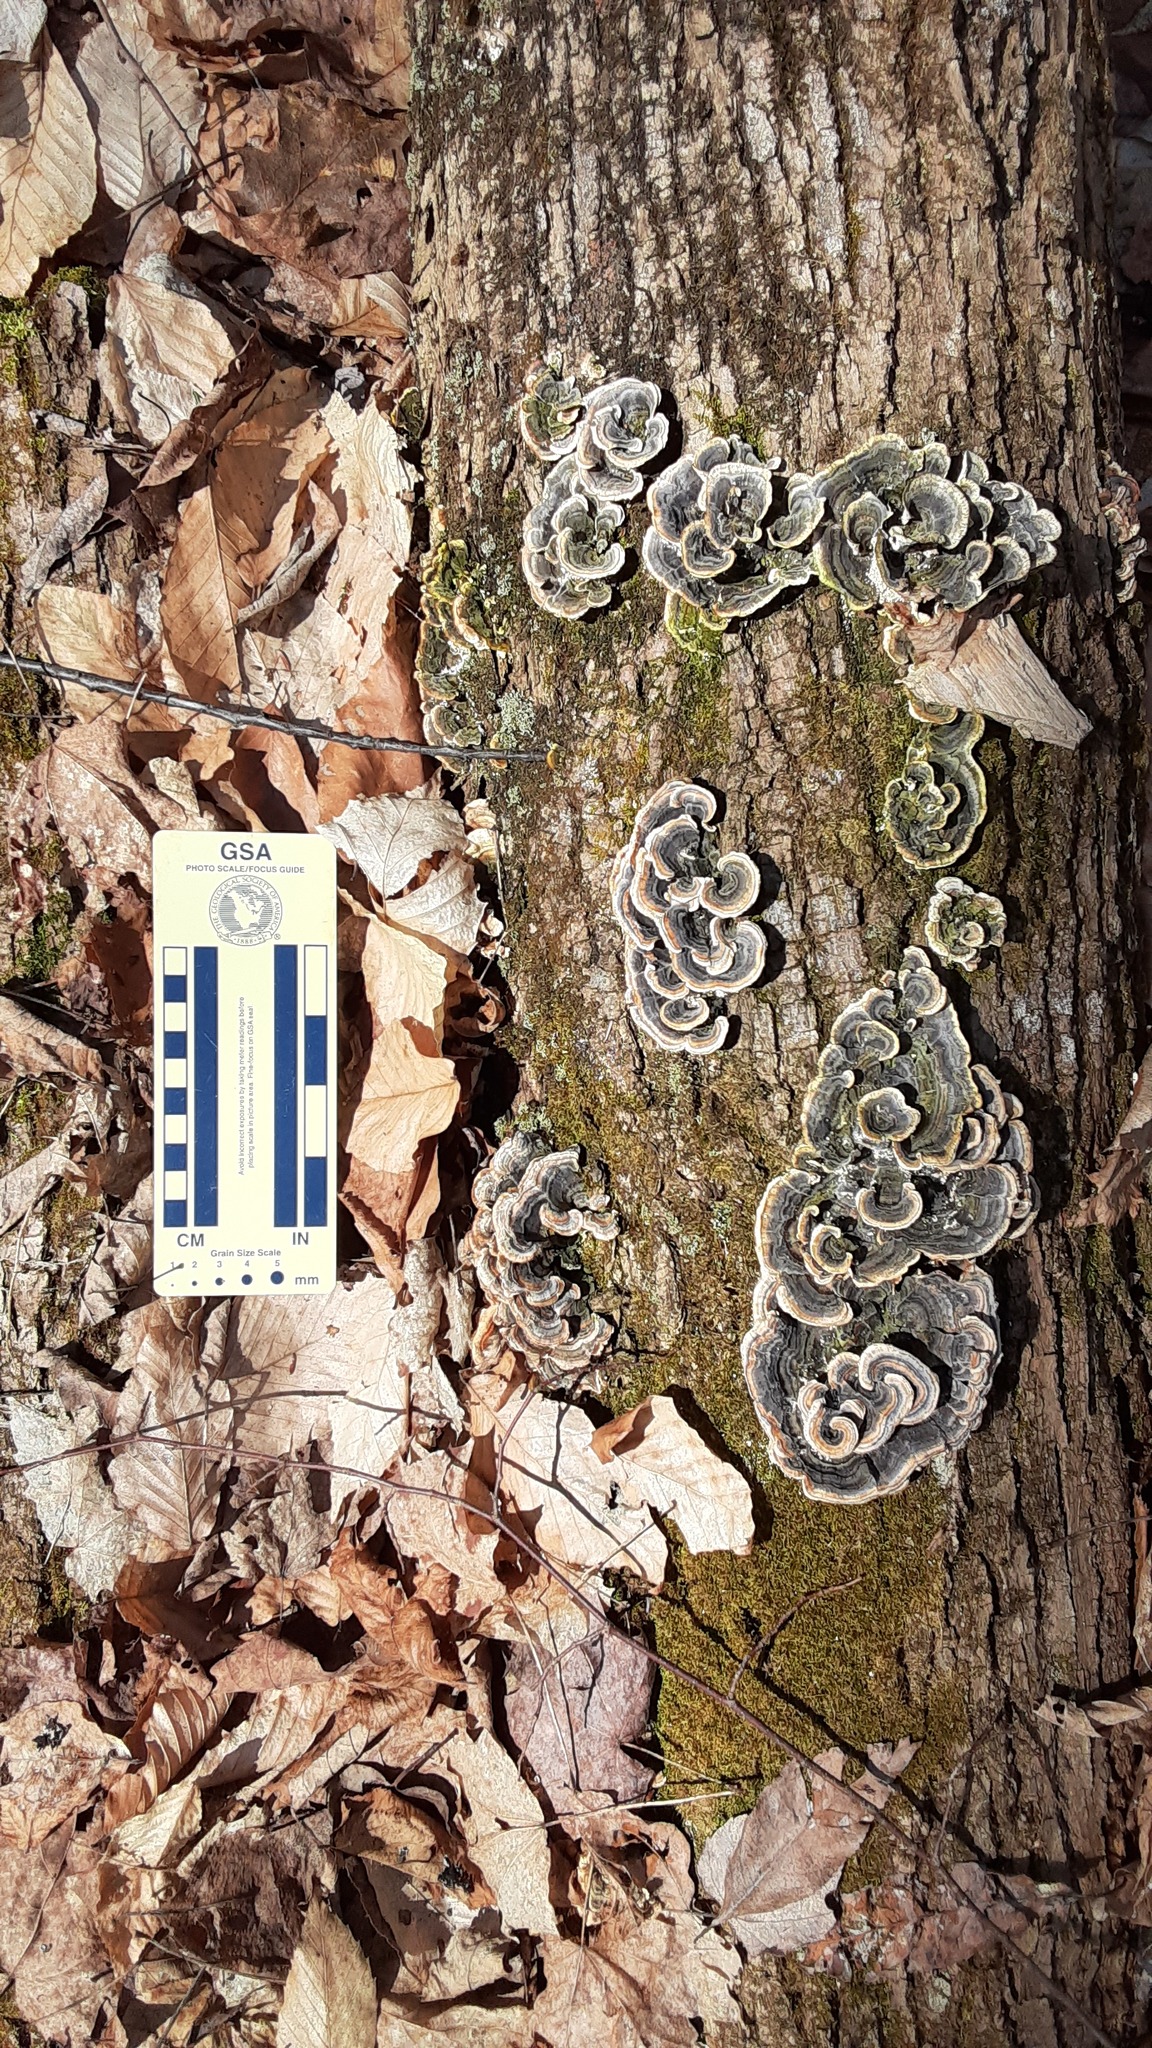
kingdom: Fungi
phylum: Basidiomycota
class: Agaricomycetes
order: Polyporales
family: Polyporaceae
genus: Trametes
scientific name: Trametes versicolor
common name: Turkeytail
